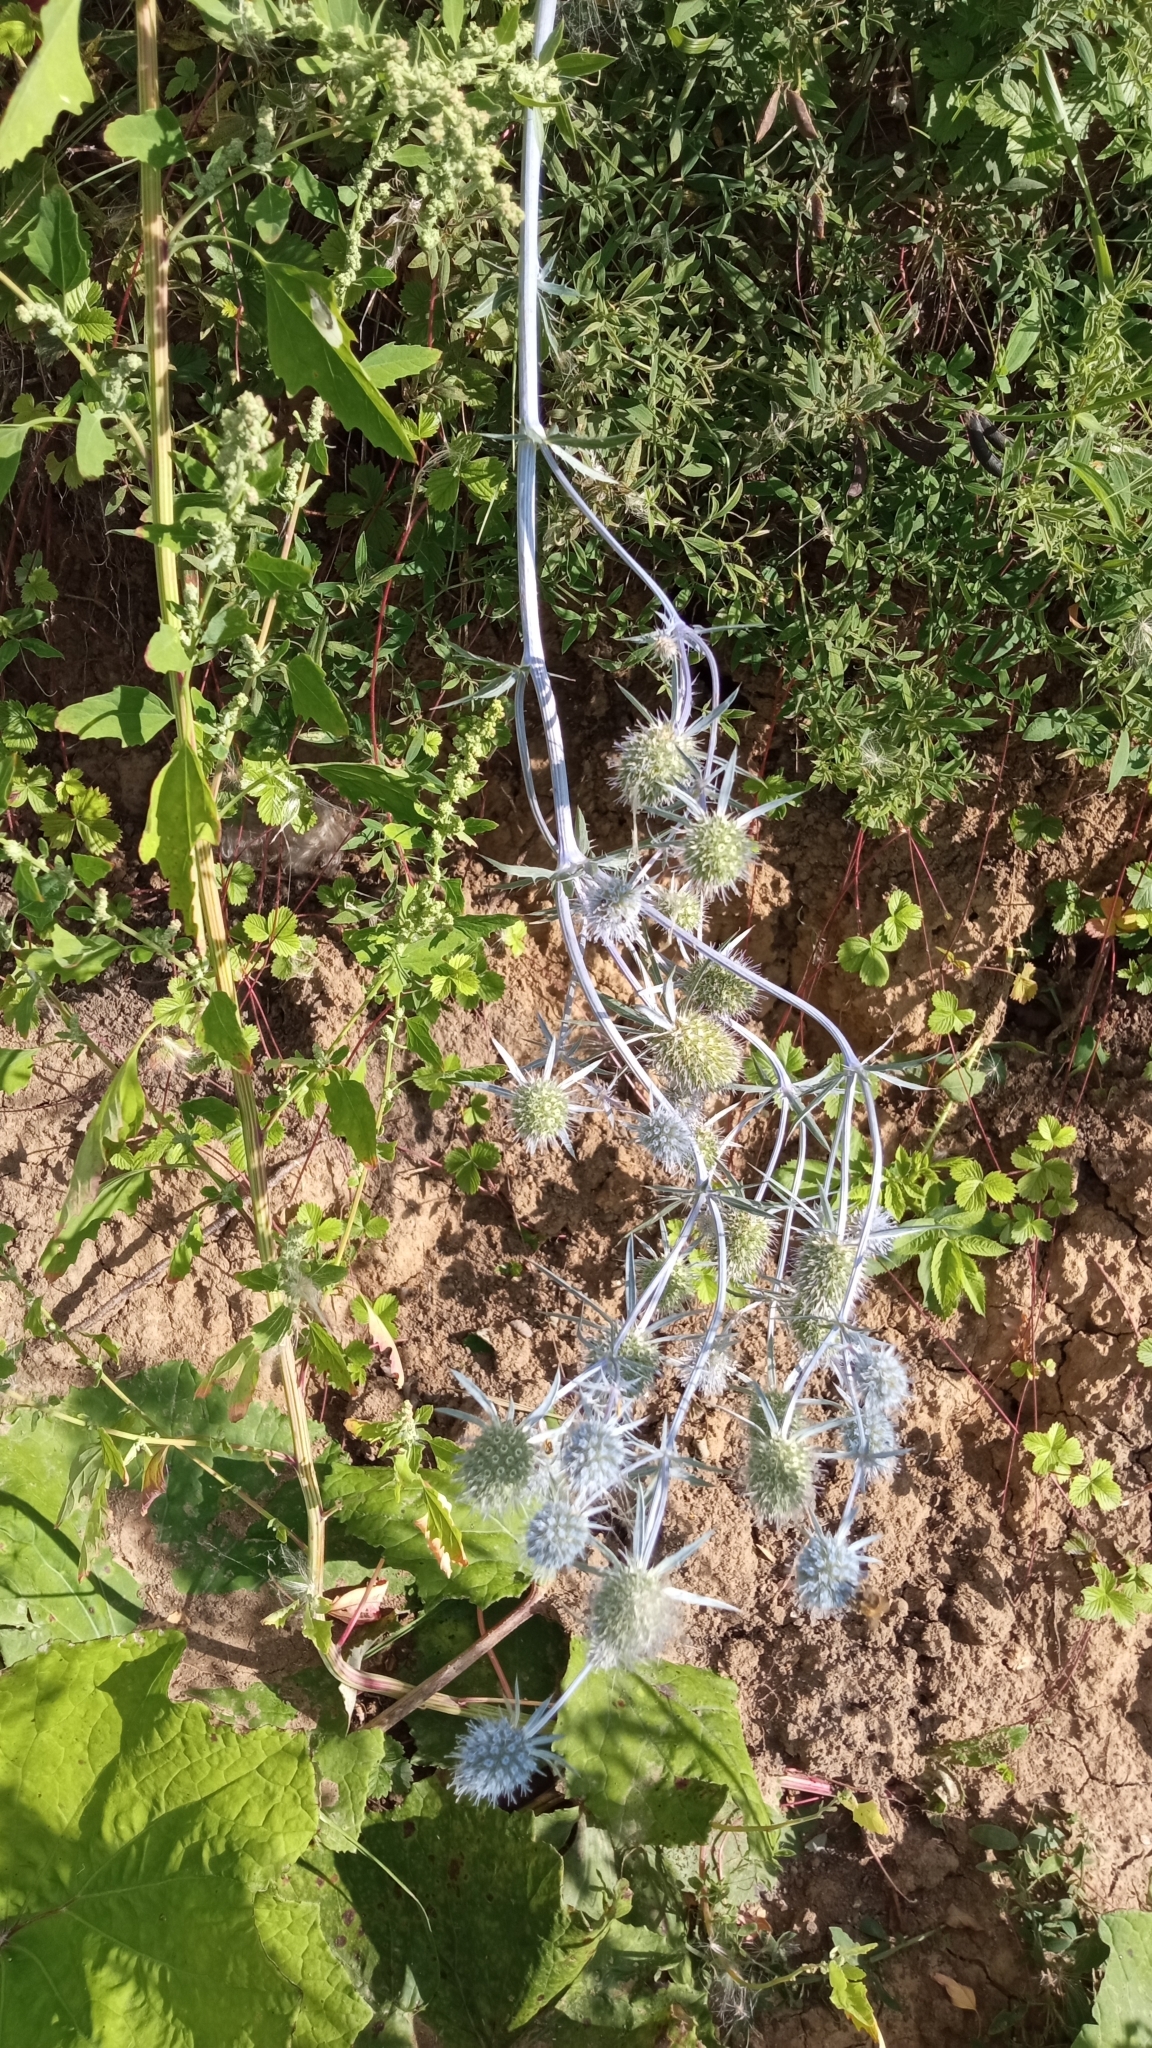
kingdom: Plantae
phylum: Tracheophyta
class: Magnoliopsida
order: Apiales
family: Apiaceae
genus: Eryngium
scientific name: Eryngium planum
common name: Blue eryngo
